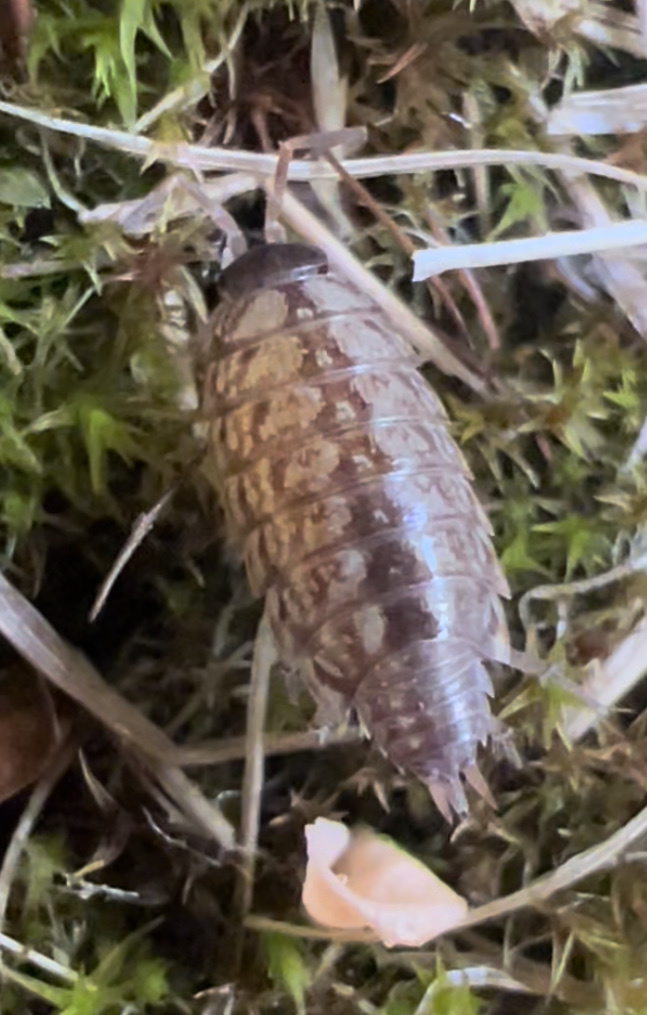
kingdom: Animalia
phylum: Arthropoda
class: Malacostraca
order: Isopoda
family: Philosciidae
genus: Philoscia
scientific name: Philoscia muscorum
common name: Common striped woodlouse
